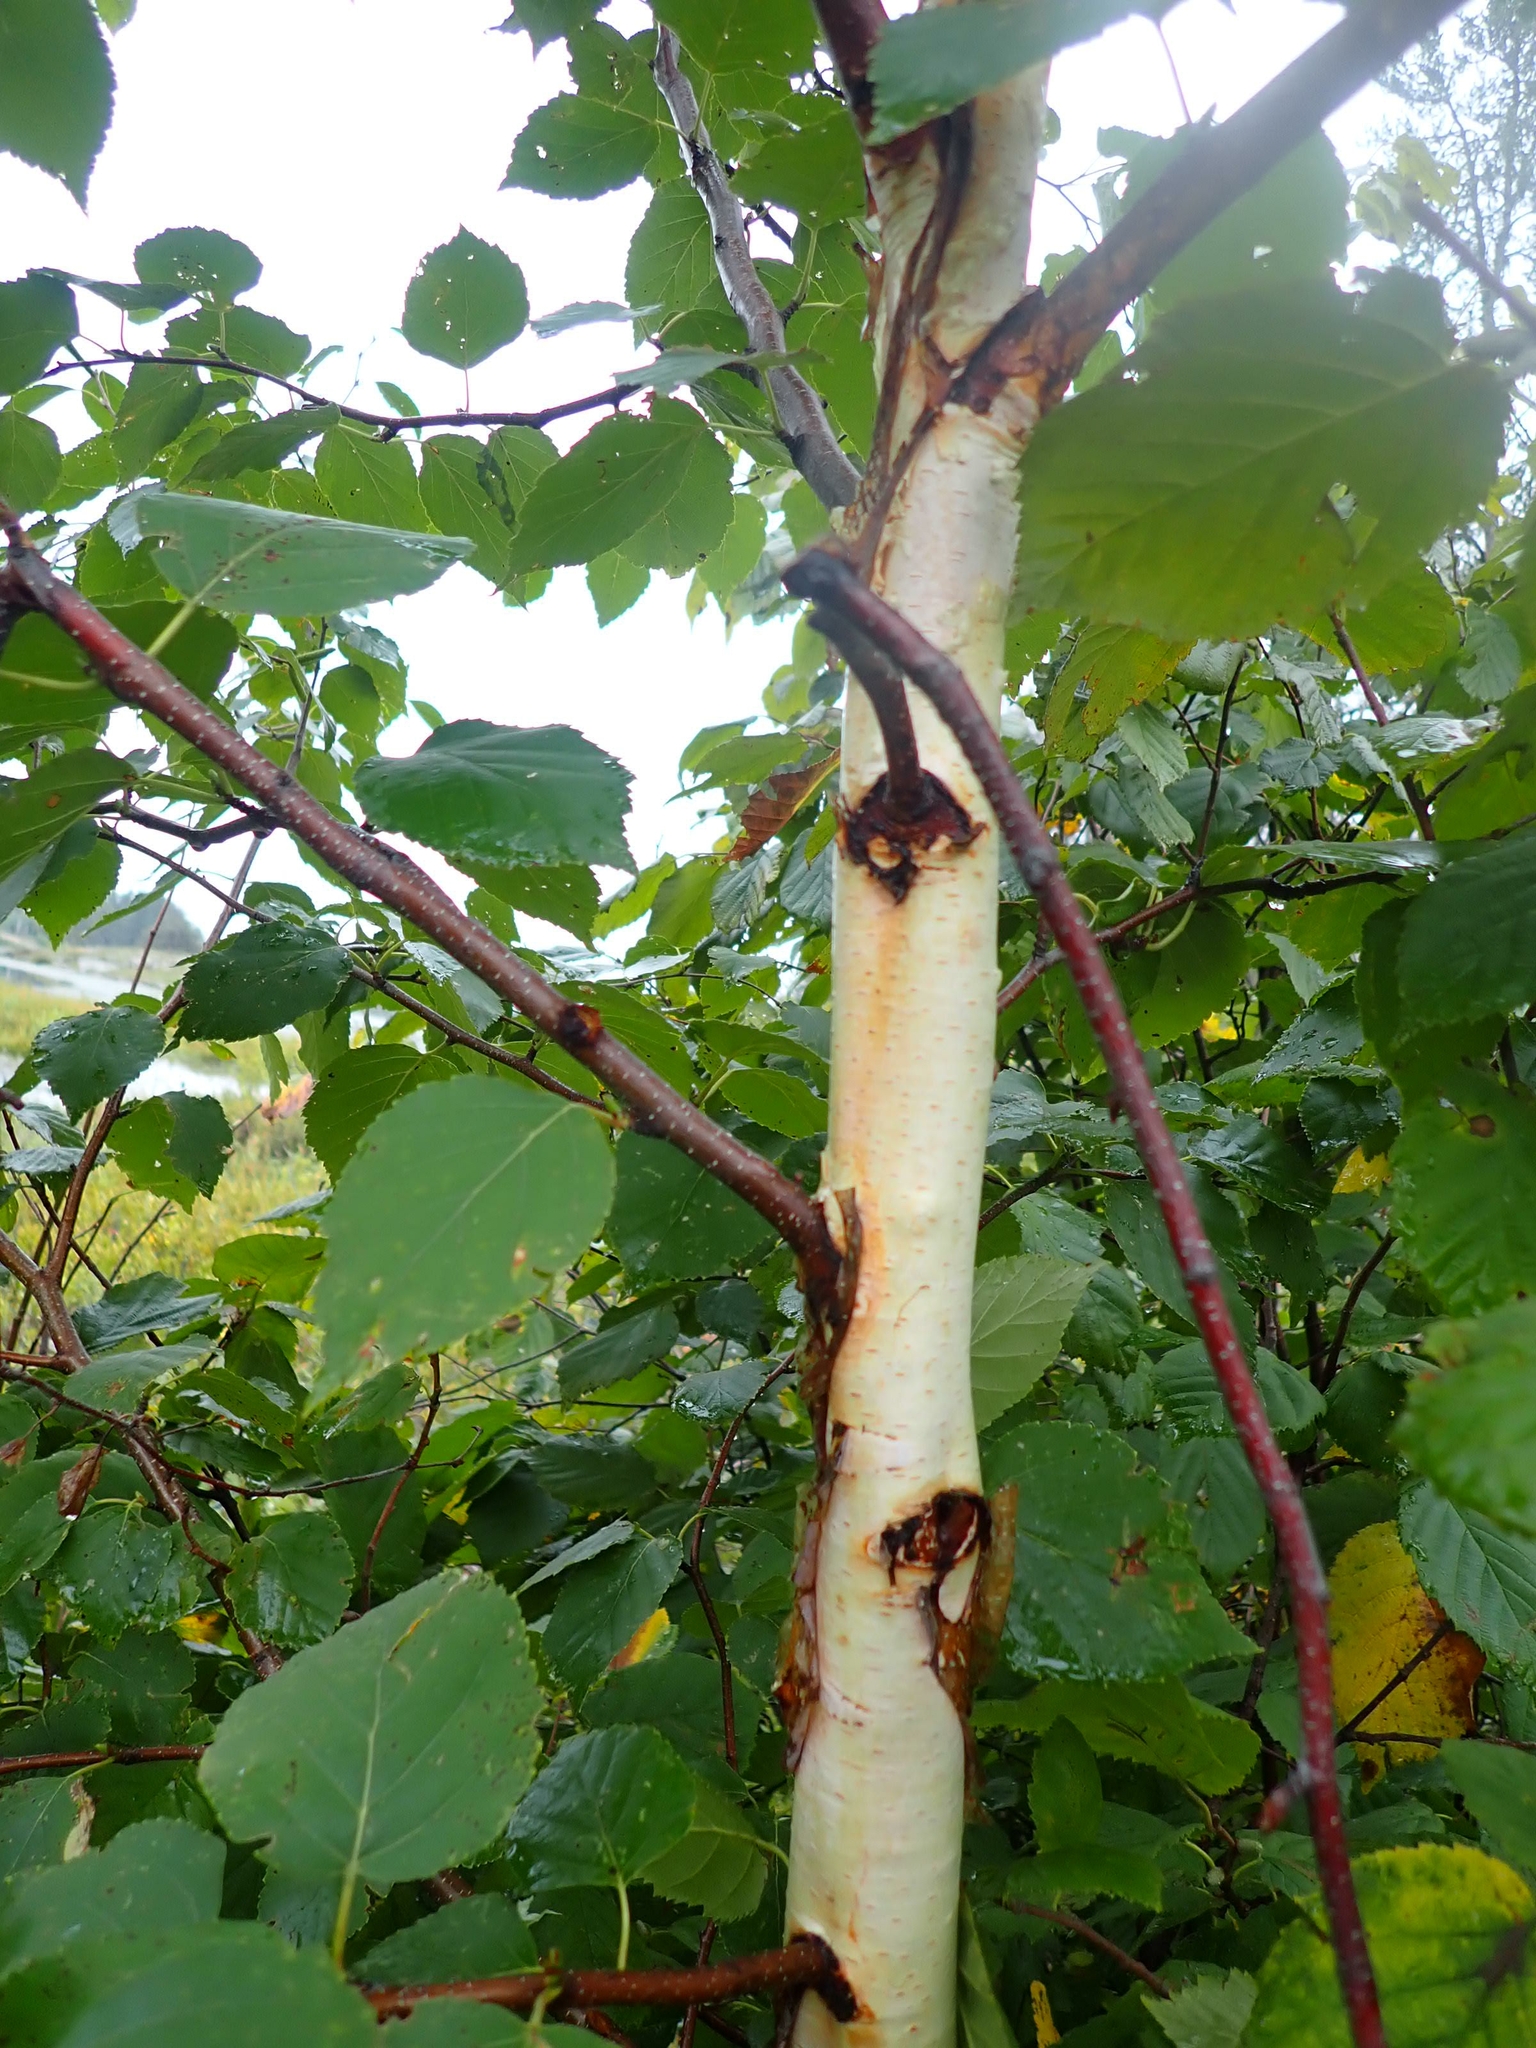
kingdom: Plantae
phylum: Tracheophyta
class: Magnoliopsida
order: Fagales
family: Betulaceae
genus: Betula
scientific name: Betula papyrifera
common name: Paper birch
